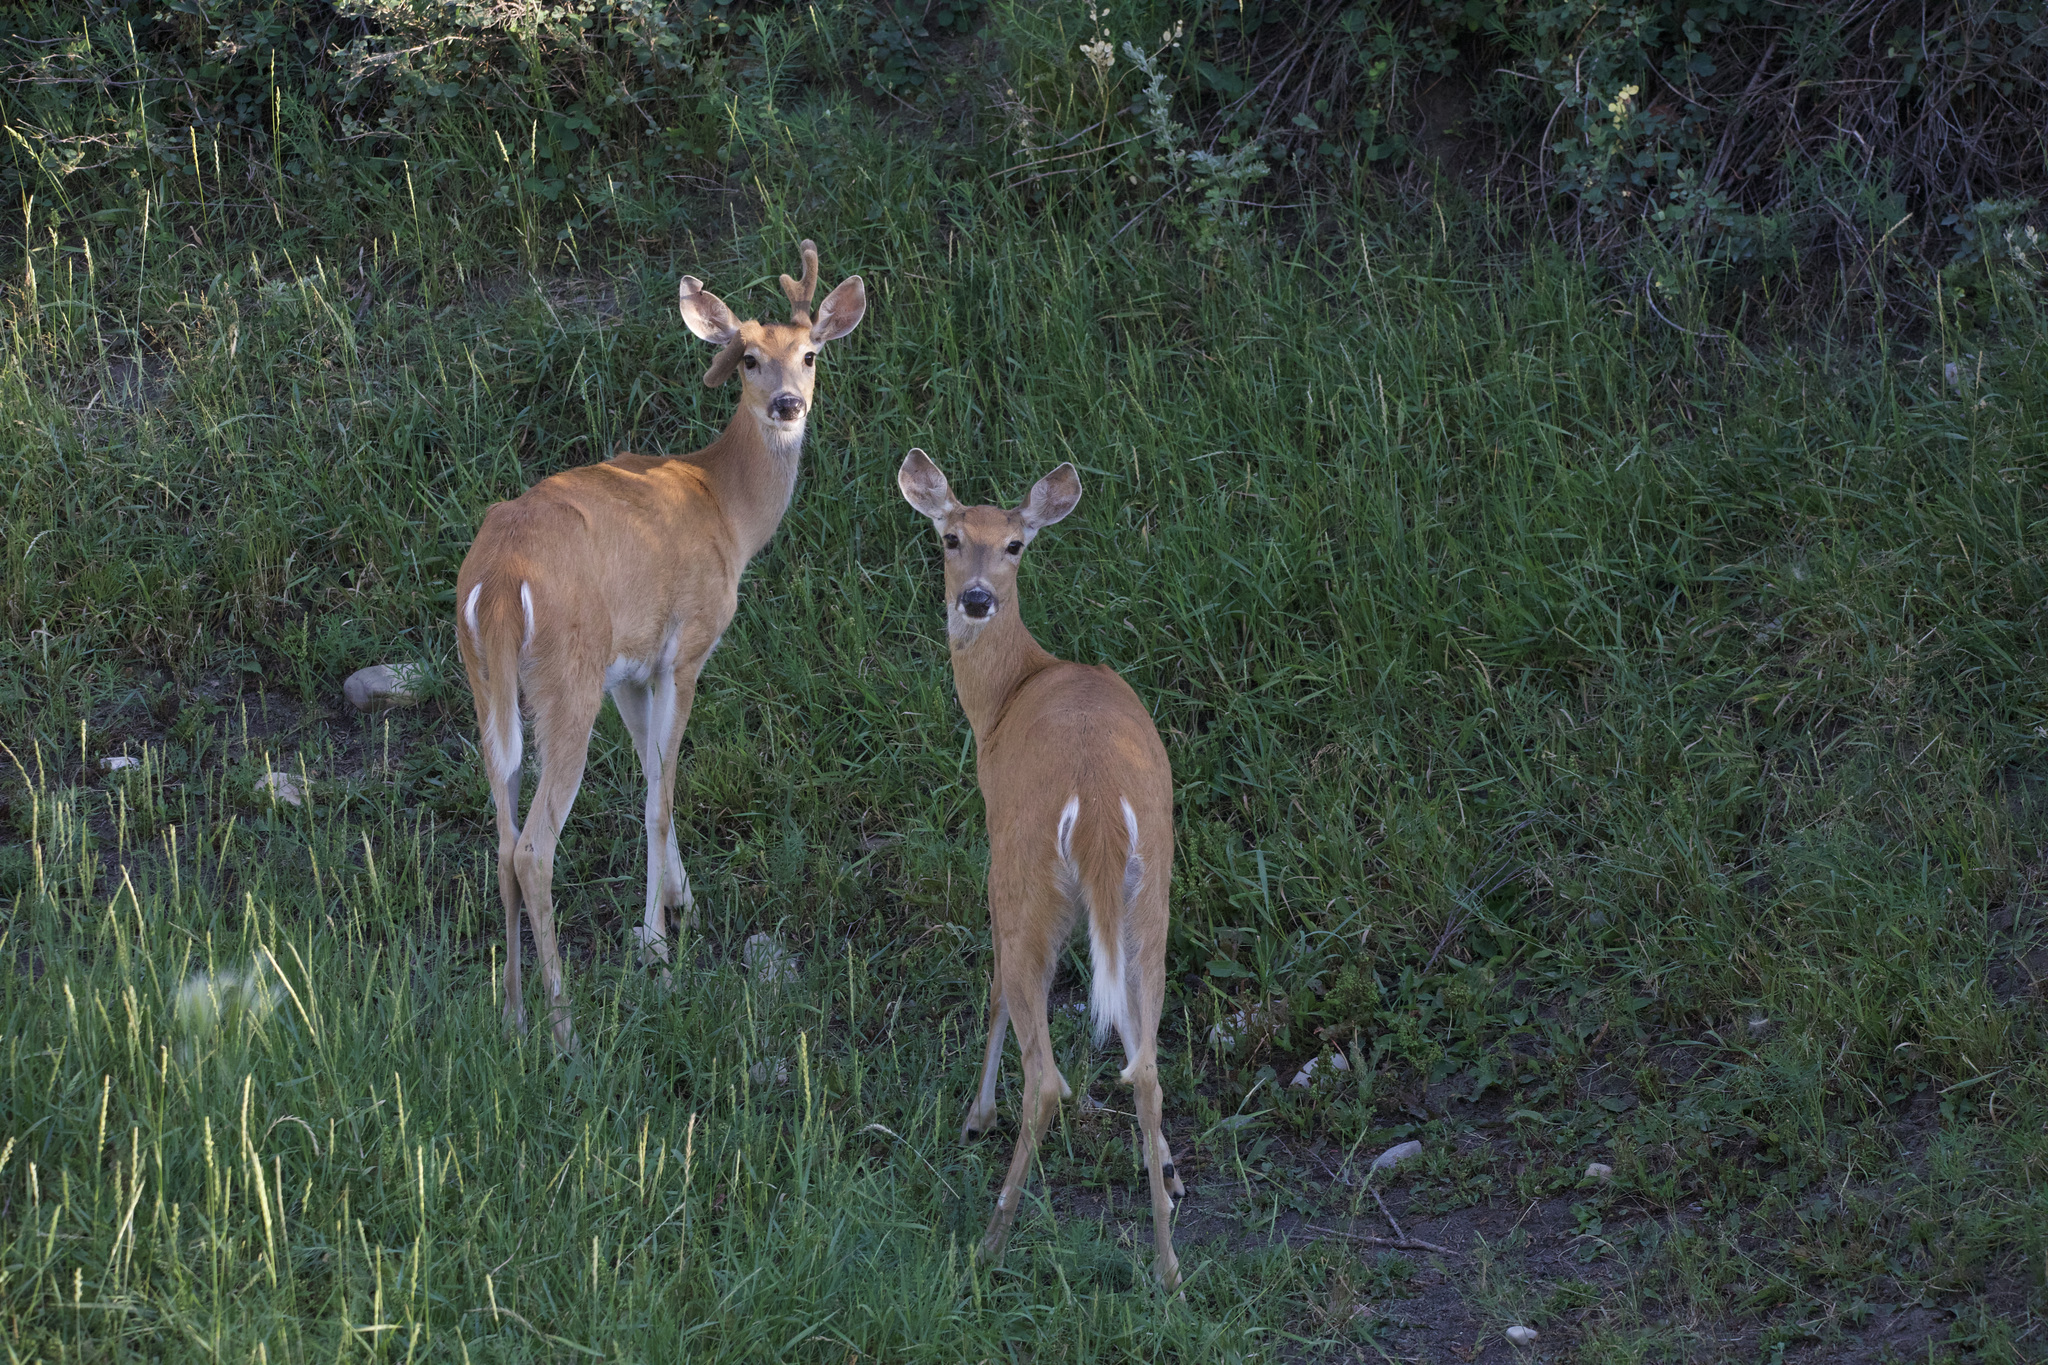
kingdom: Animalia
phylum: Chordata
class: Mammalia
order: Artiodactyla
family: Cervidae
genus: Odocoileus
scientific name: Odocoileus virginianus
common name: White-tailed deer
